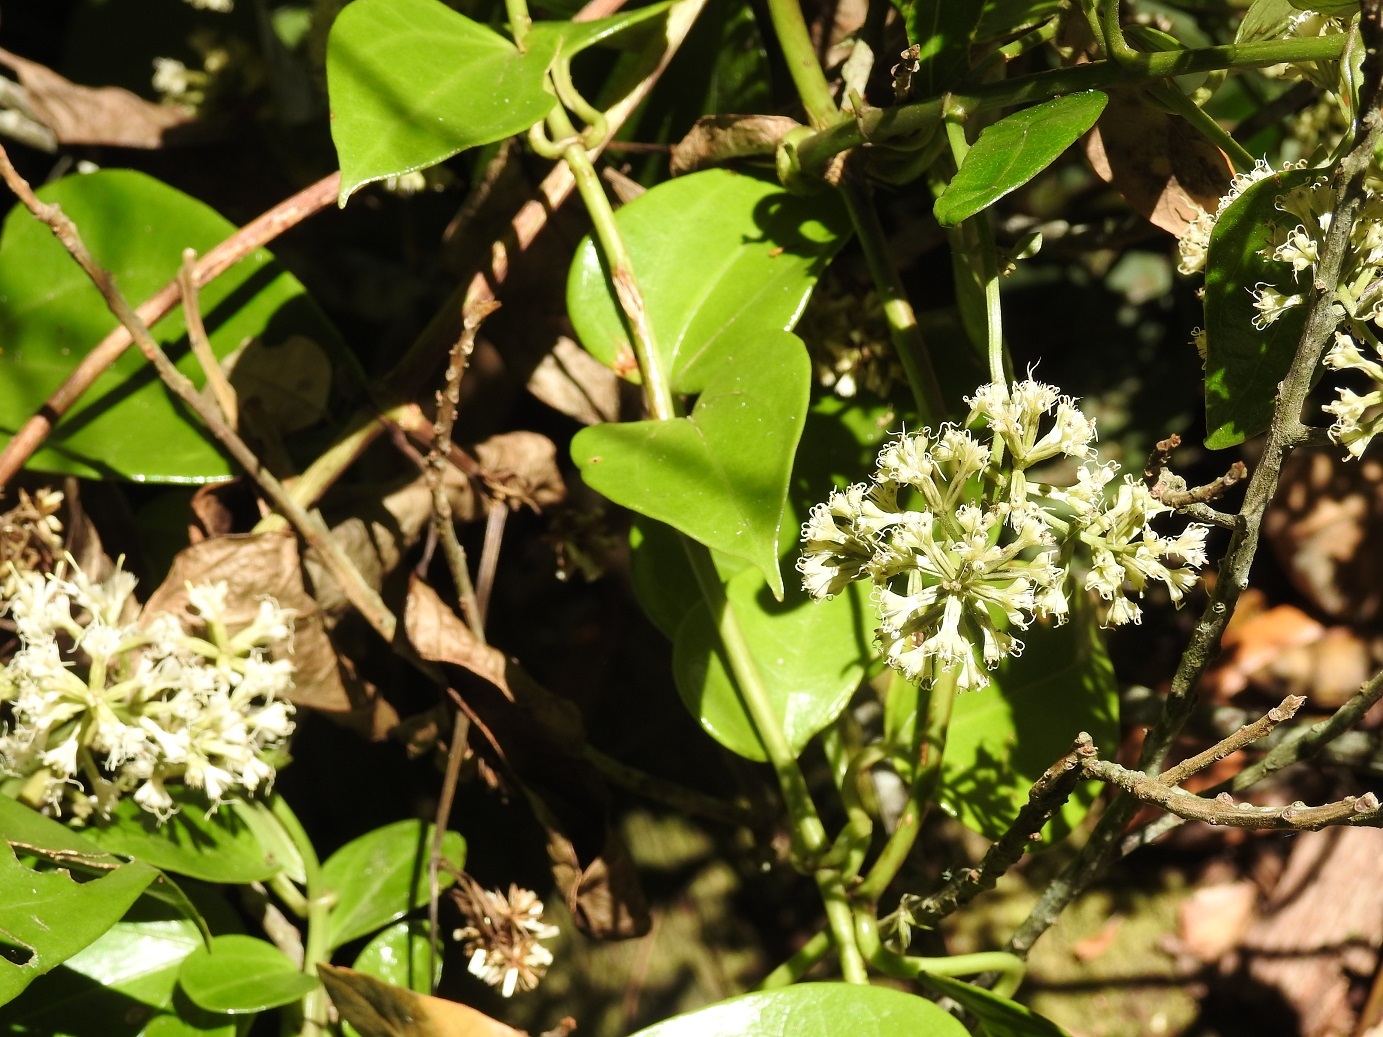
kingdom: Plantae
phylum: Tracheophyta
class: Magnoliopsida
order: Asterales
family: Asteraceae
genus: Mikania
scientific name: Mikania leiostachya
